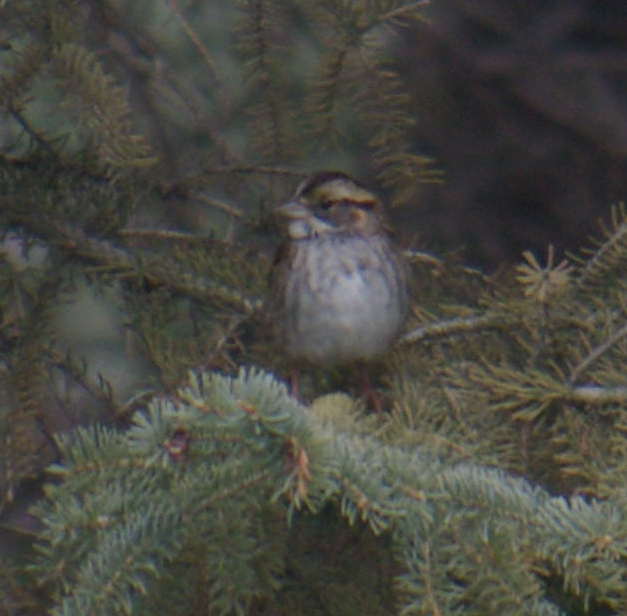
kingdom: Animalia
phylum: Chordata
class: Aves
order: Passeriformes
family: Passerellidae
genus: Zonotrichia
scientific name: Zonotrichia albicollis
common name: White-throated sparrow
